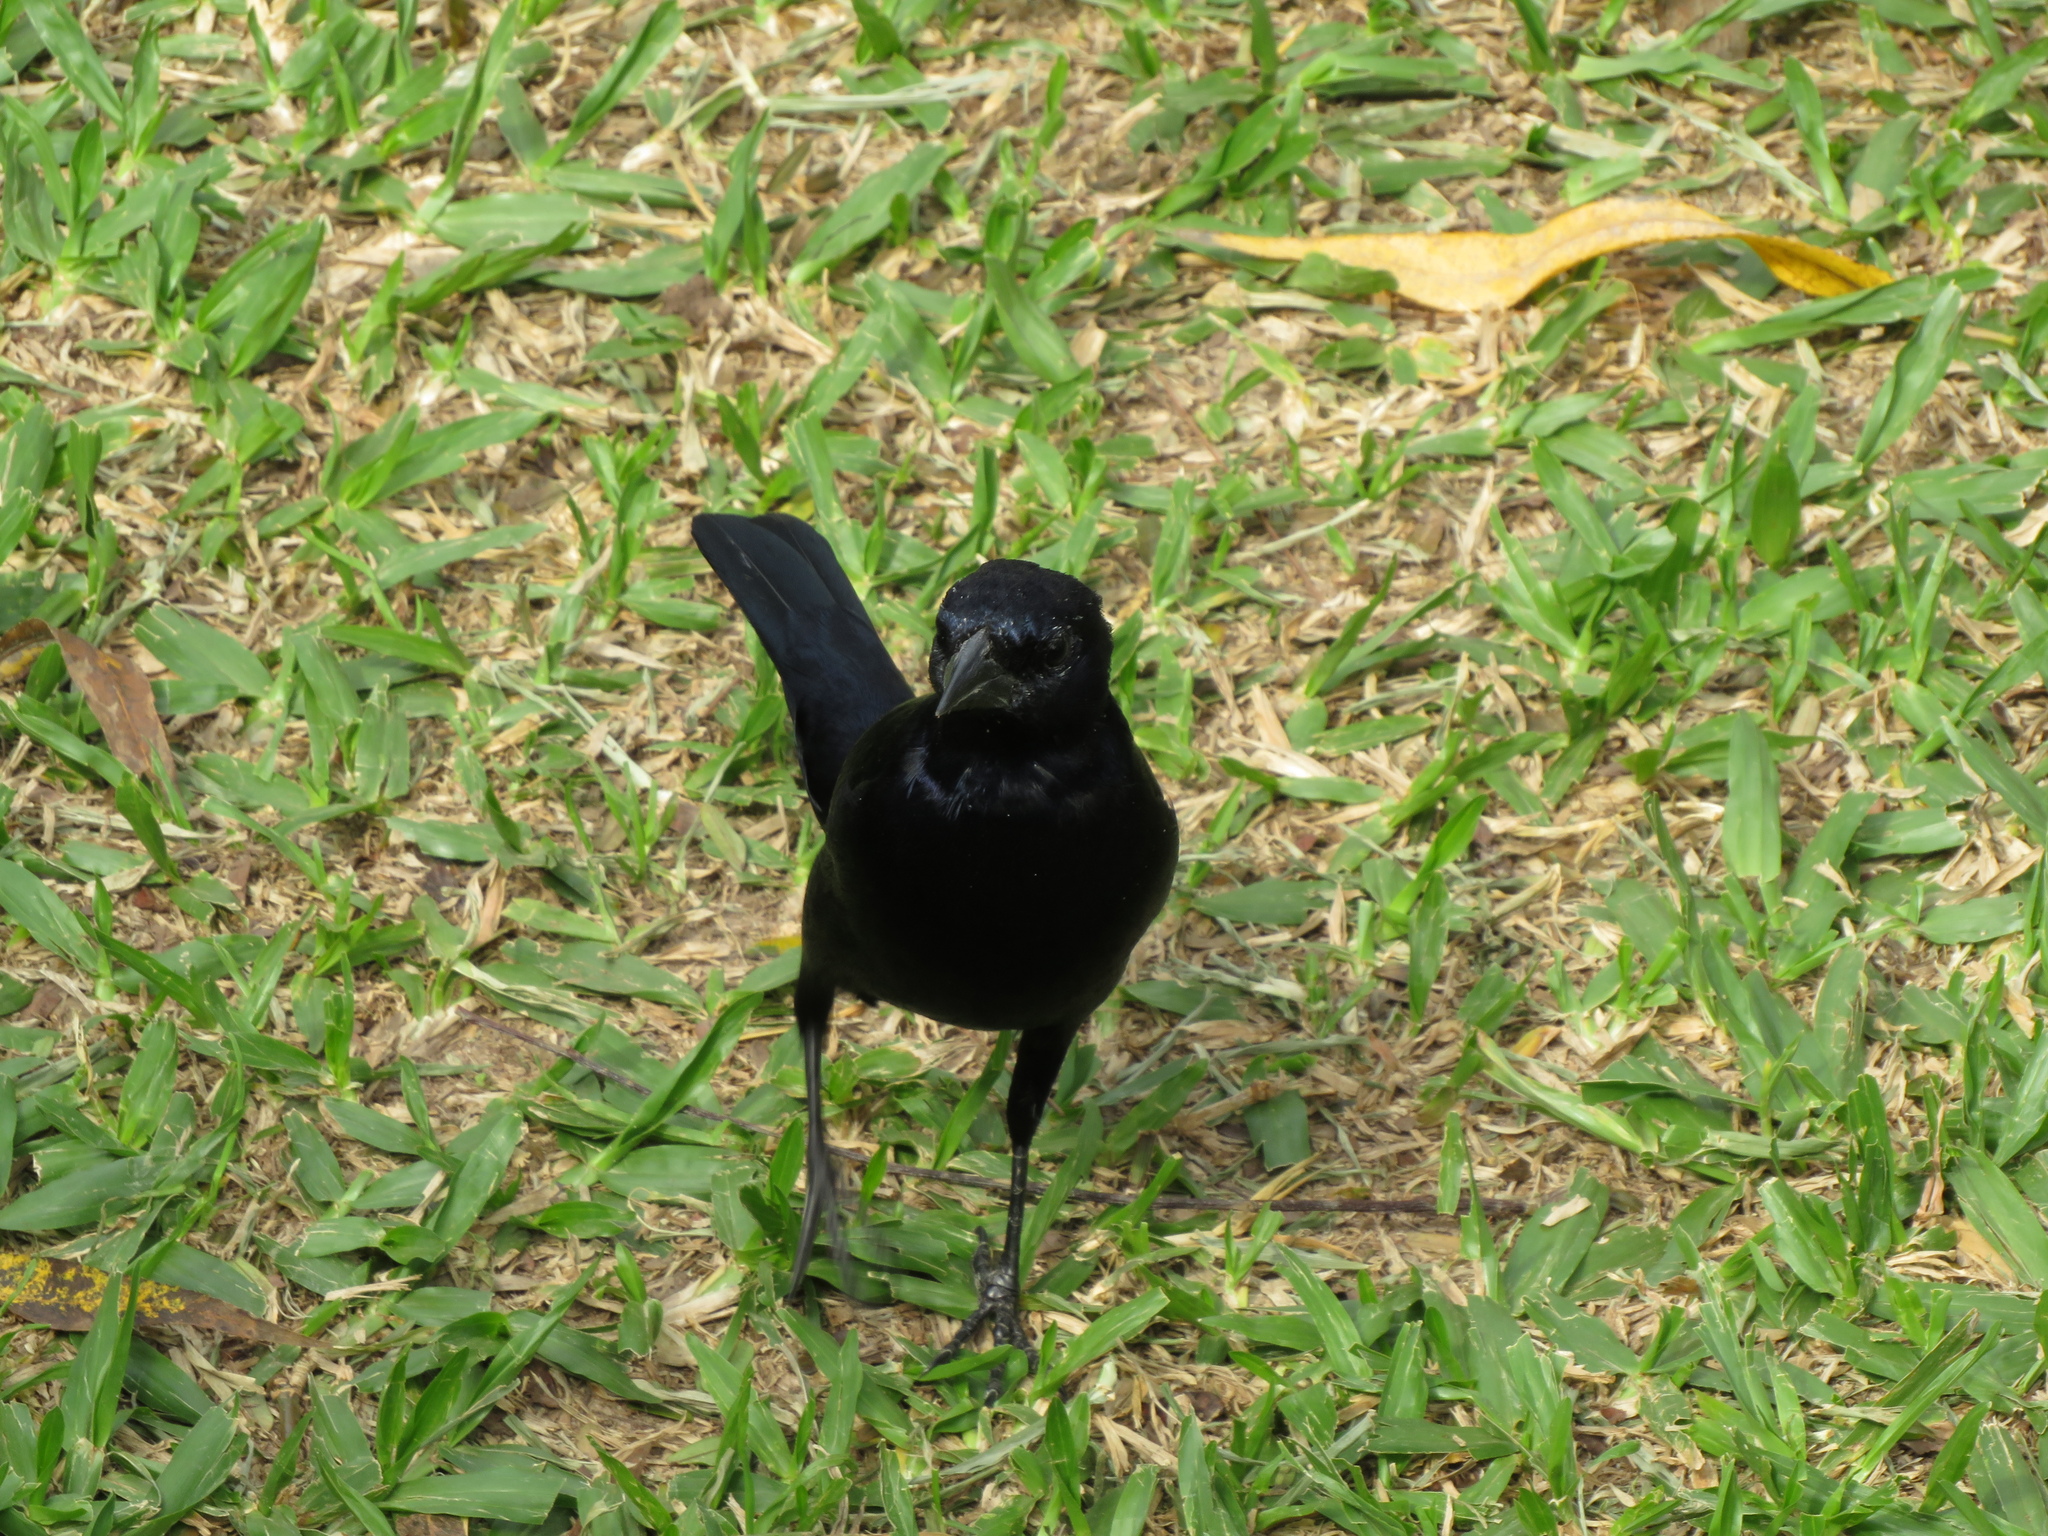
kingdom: Animalia
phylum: Chordata
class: Aves
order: Passeriformes
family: Icteridae
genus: Molothrus
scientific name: Molothrus bonariensis
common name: Shiny cowbird
